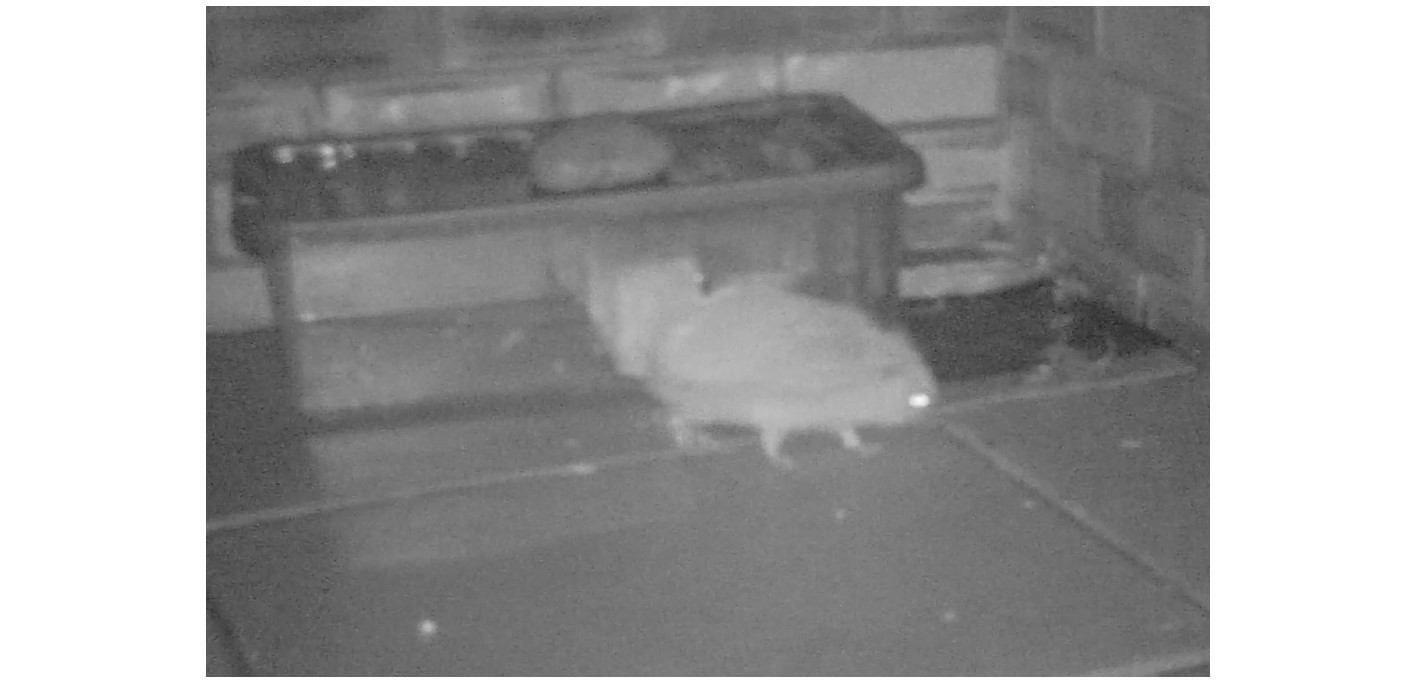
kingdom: Animalia
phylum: Chordata
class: Mammalia
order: Erinaceomorpha
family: Erinaceidae
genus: Erinaceus
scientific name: Erinaceus europaeus
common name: West european hedgehog
